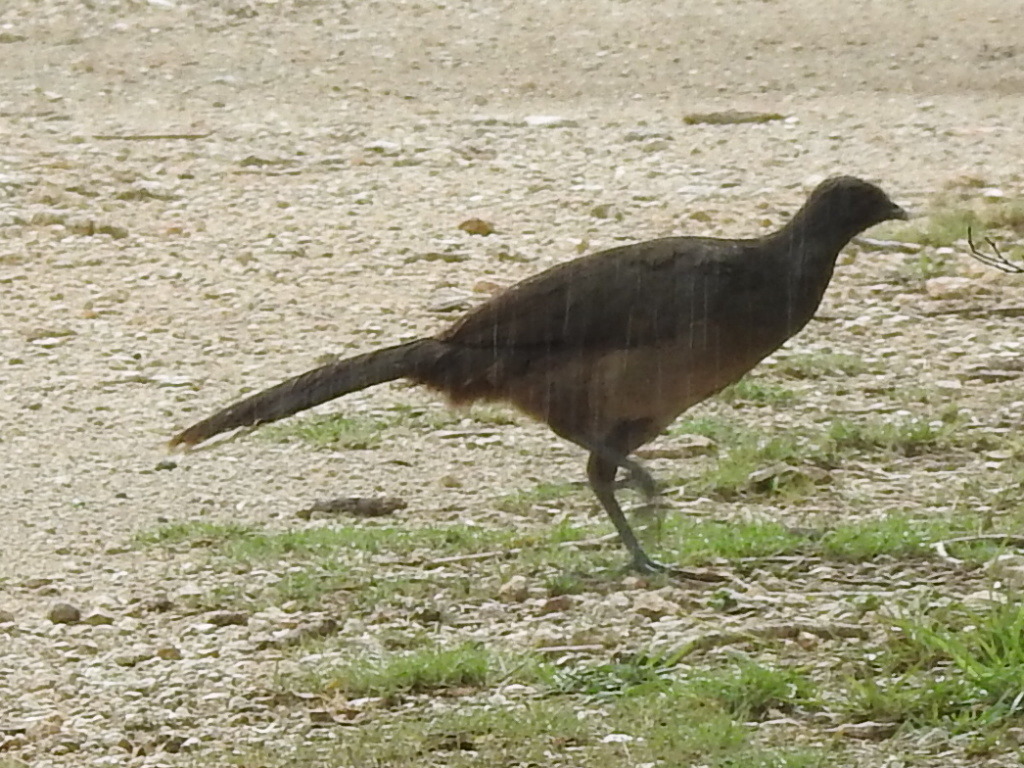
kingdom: Animalia
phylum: Chordata
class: Aves
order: Galliformes
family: Cracidae
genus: Ortalis
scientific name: Ortalis vetula
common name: Plain chachalaca
